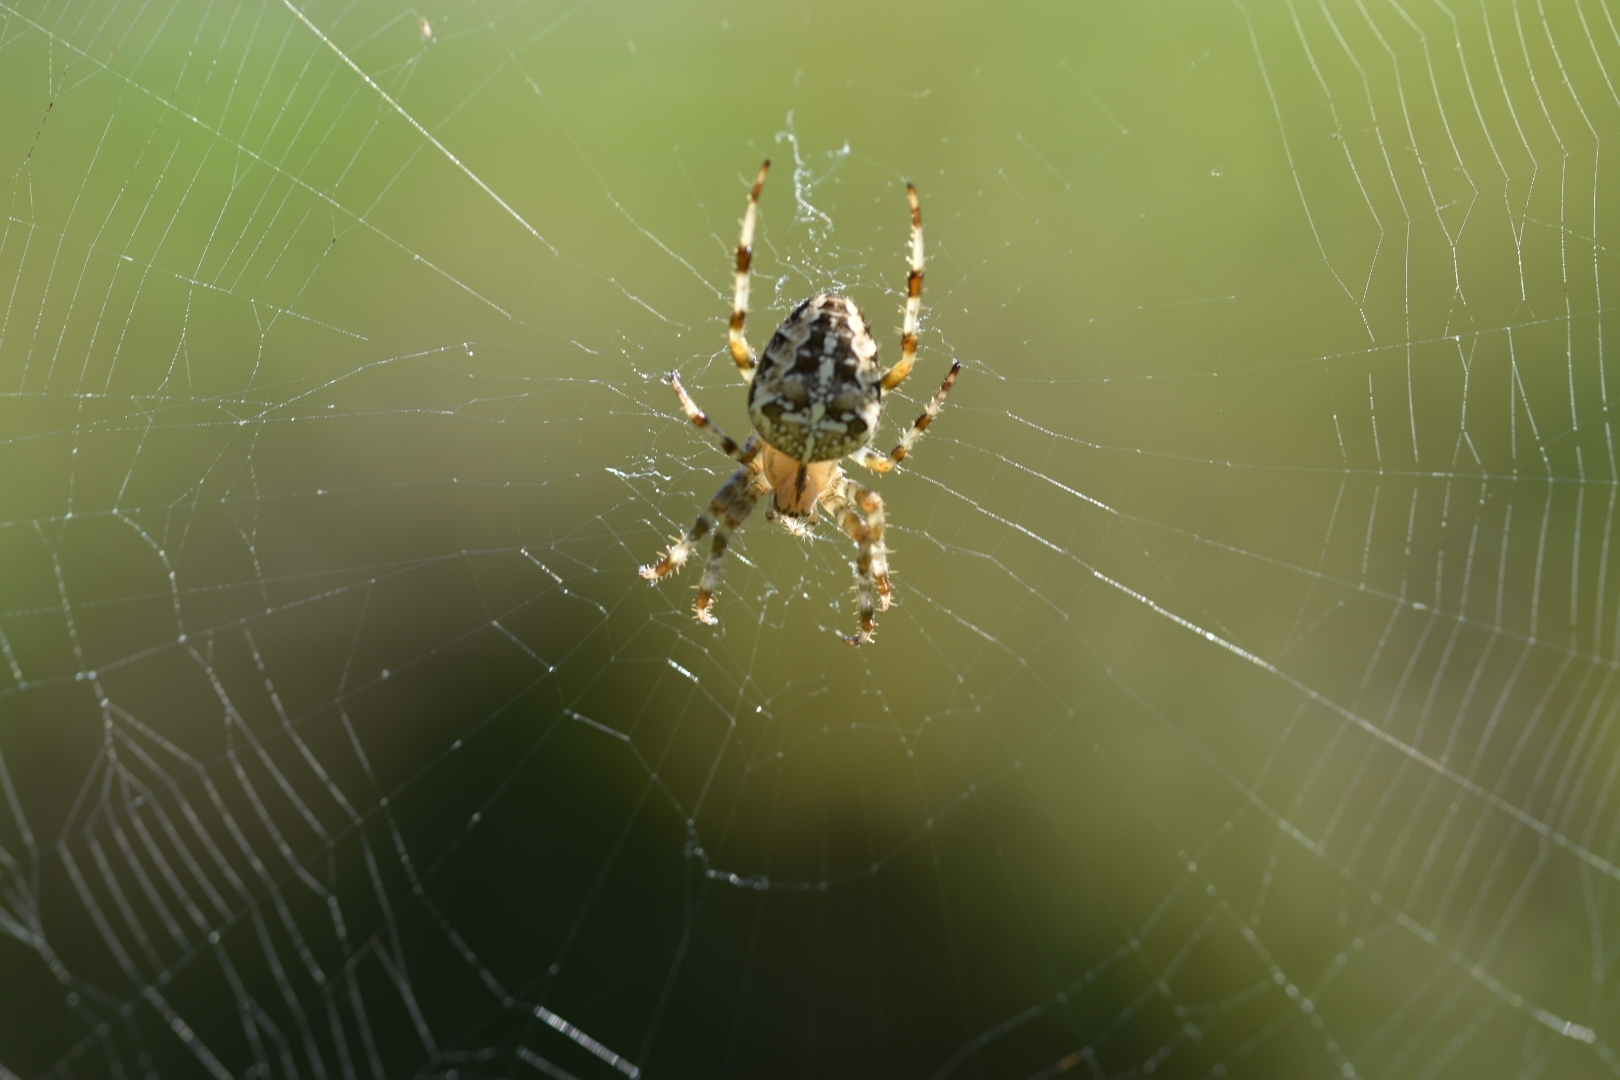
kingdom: Animalia
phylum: Arthropoda
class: Arachnida
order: Araneae
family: Araneidae
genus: Araneus
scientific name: Araneus diadematus
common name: Cross orbweaver
